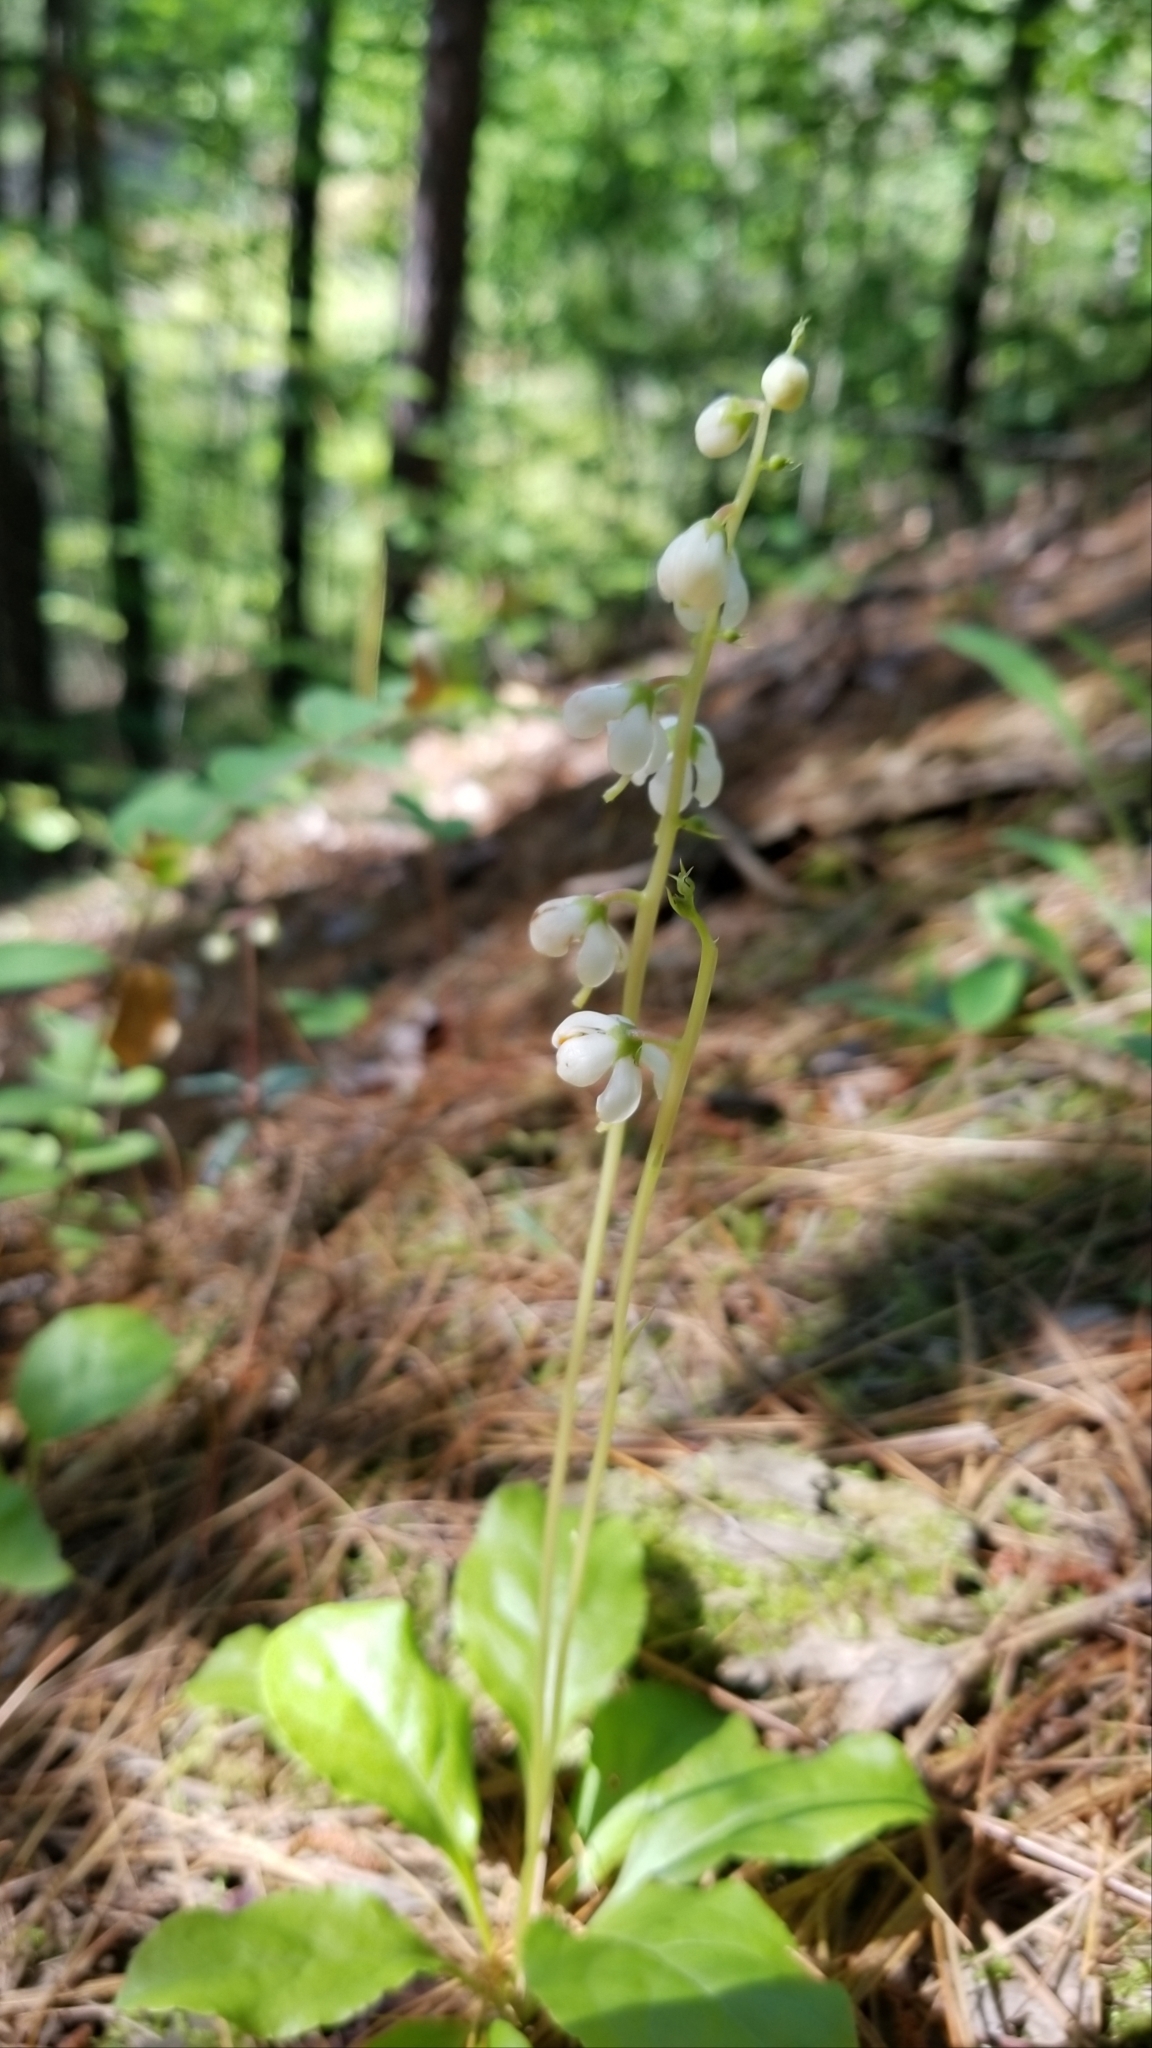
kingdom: Plantae
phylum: Tracheophyta
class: Magnoliopsida
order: Ericales
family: Ericaceae
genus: Pyrola
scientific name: Pyrola elliptica
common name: Shinleaf
